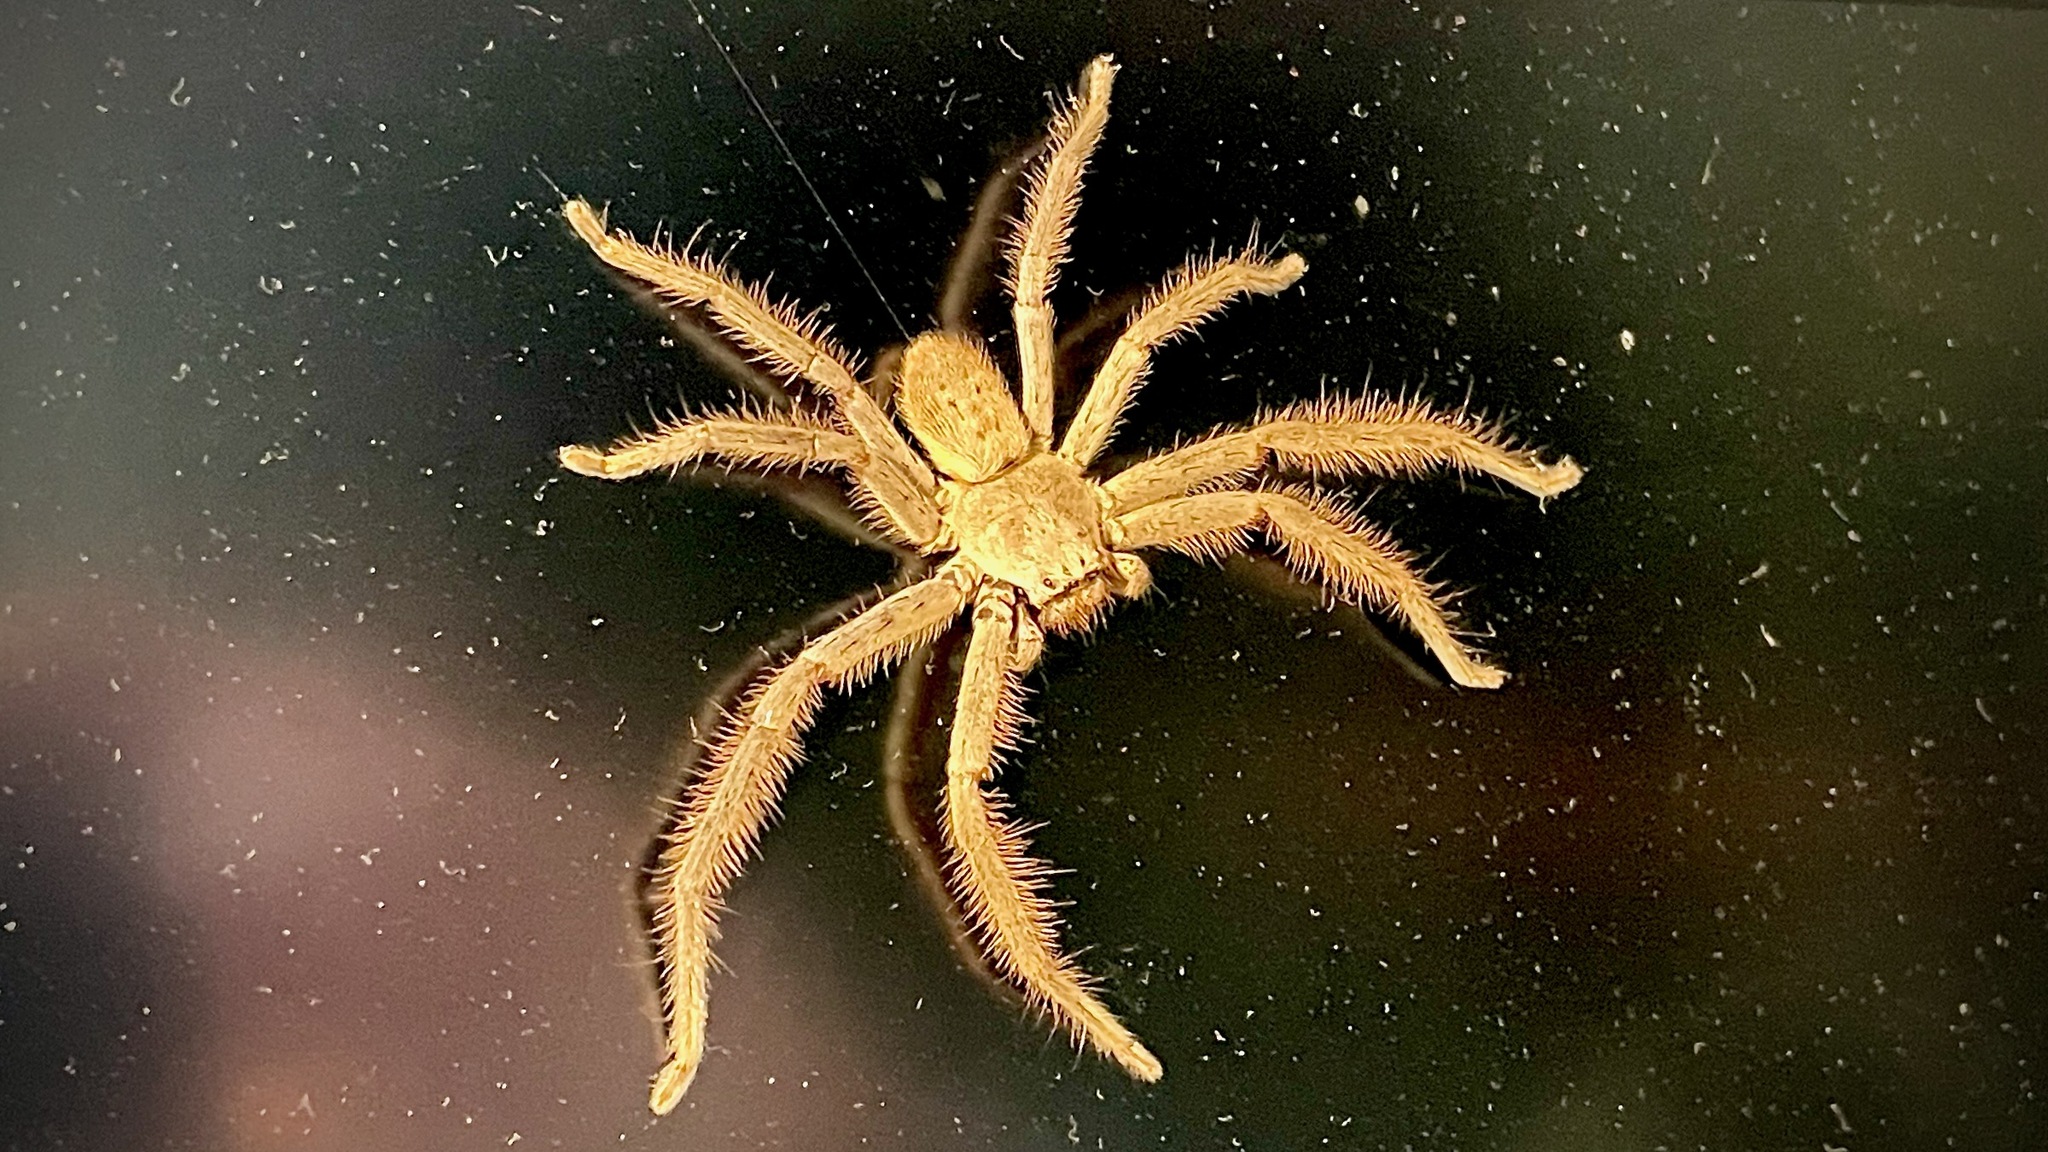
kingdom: Animalia
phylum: Arthropoda
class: Arachnida
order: Araneae
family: Sparassidae
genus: Isopeda
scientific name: Isopeda villosa
